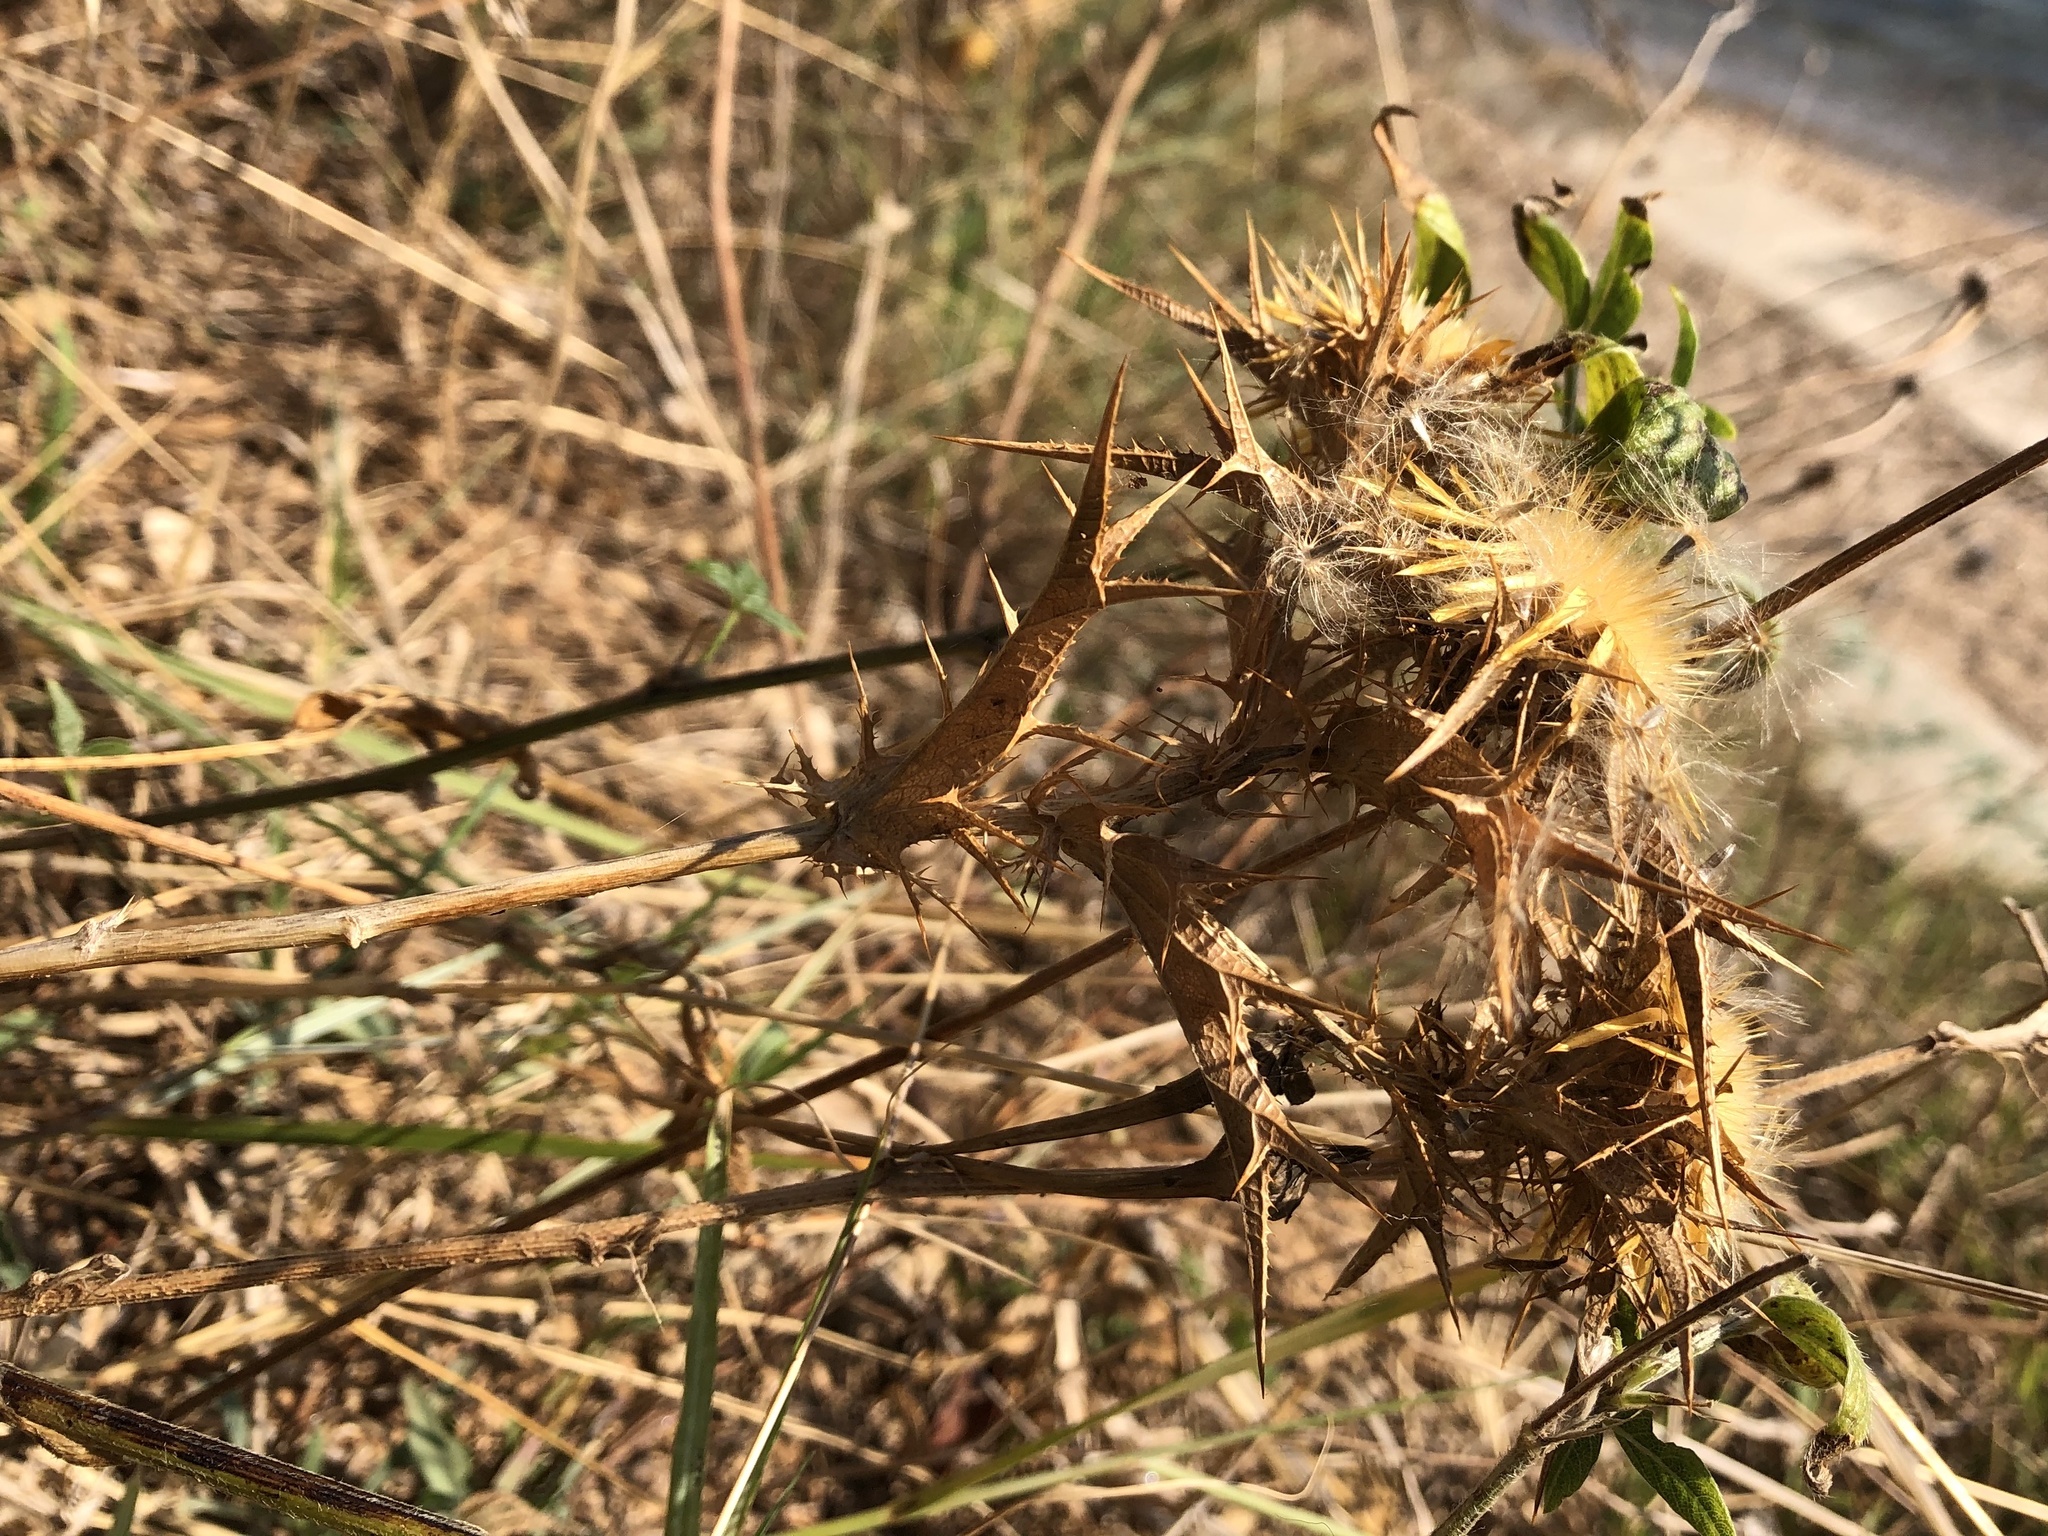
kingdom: Plantae
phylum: Tracheophyta
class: Magnoliopsida
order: Asterales
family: Asteraceae
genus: Carlina
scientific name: Carlina corymbosa
